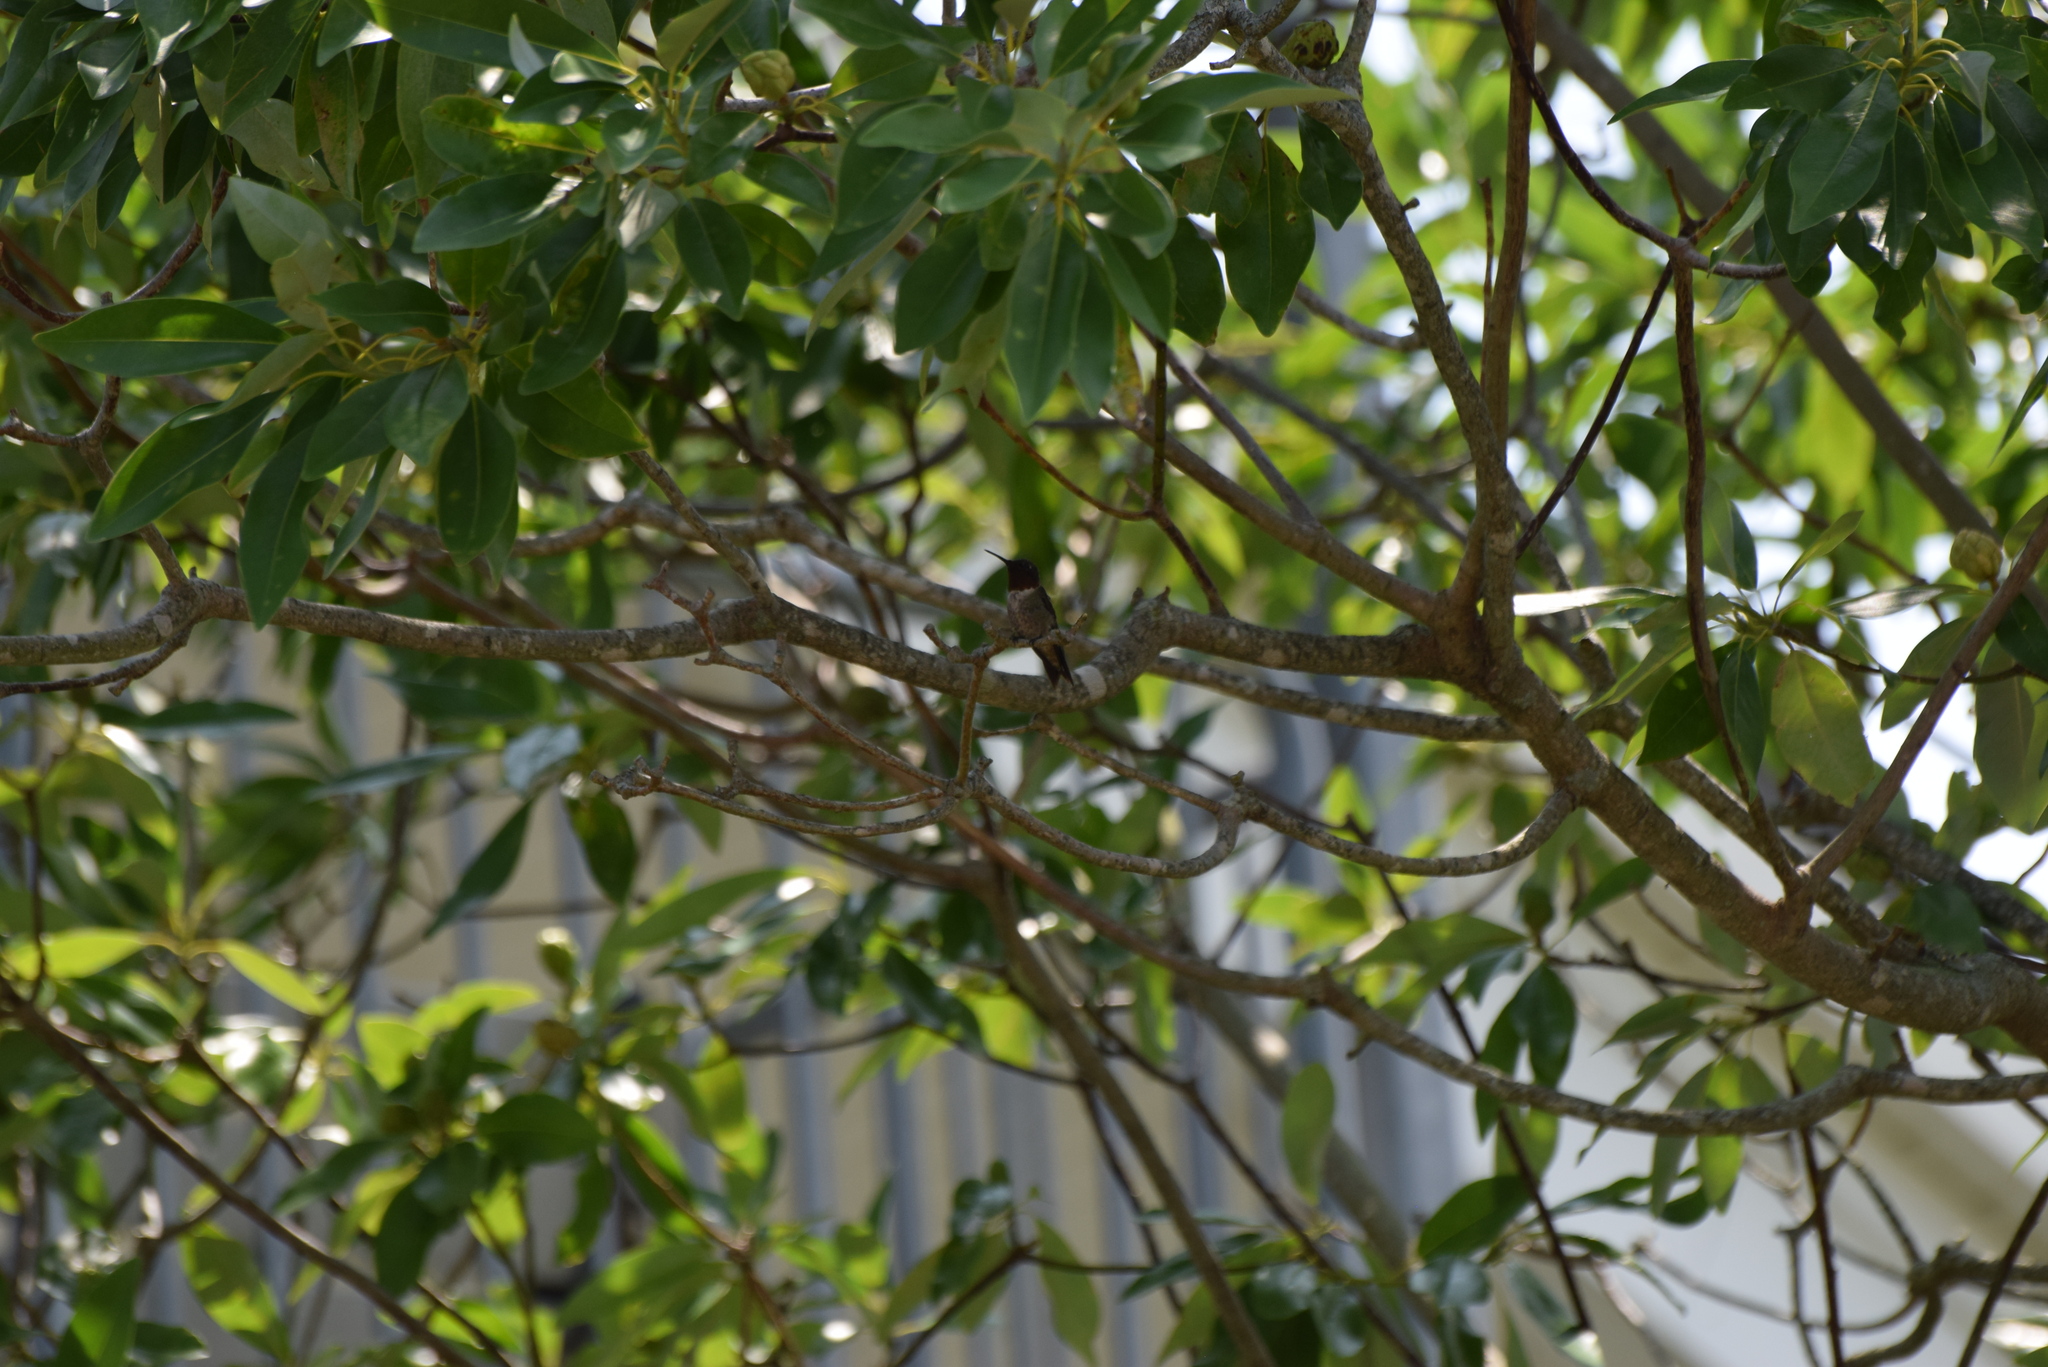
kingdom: Animalia
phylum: Chordata
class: Aves
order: Apodiformes
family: Trochilidae
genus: Archilochus
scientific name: Archilochus colubris
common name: Ruby-throated hummingbird
